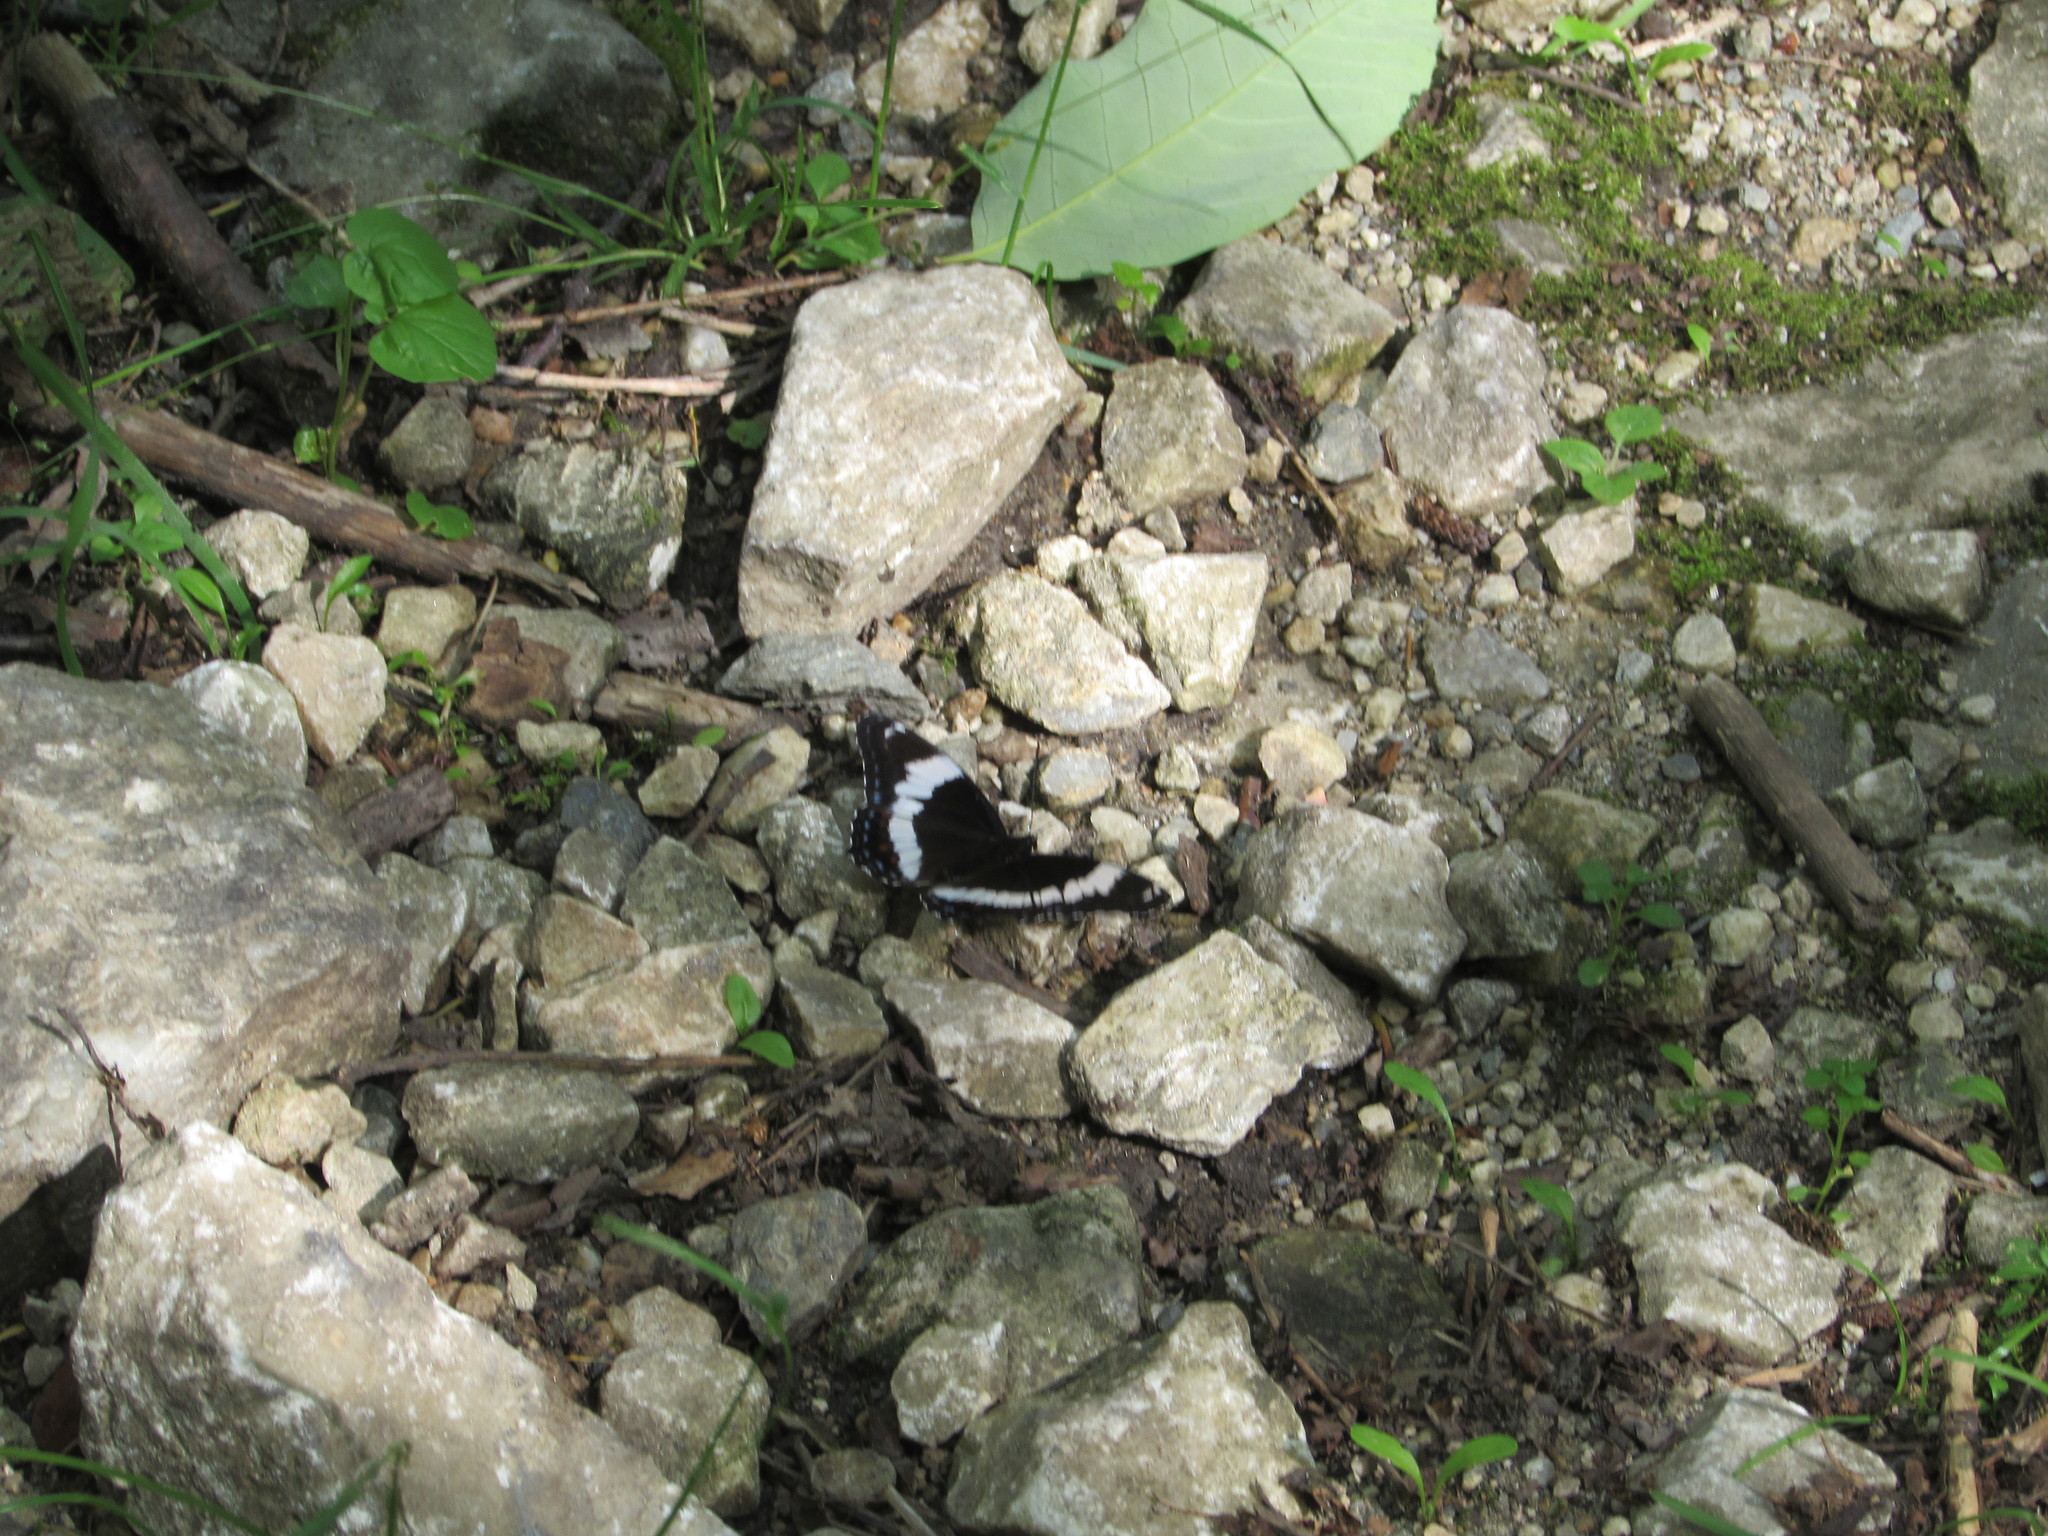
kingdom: Animalia
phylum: Arthropoda
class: Insecta
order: Lepidoptera
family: Nymphalidae
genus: Limenitis
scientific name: Limenitis arthemis
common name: Red-spotted admiral
